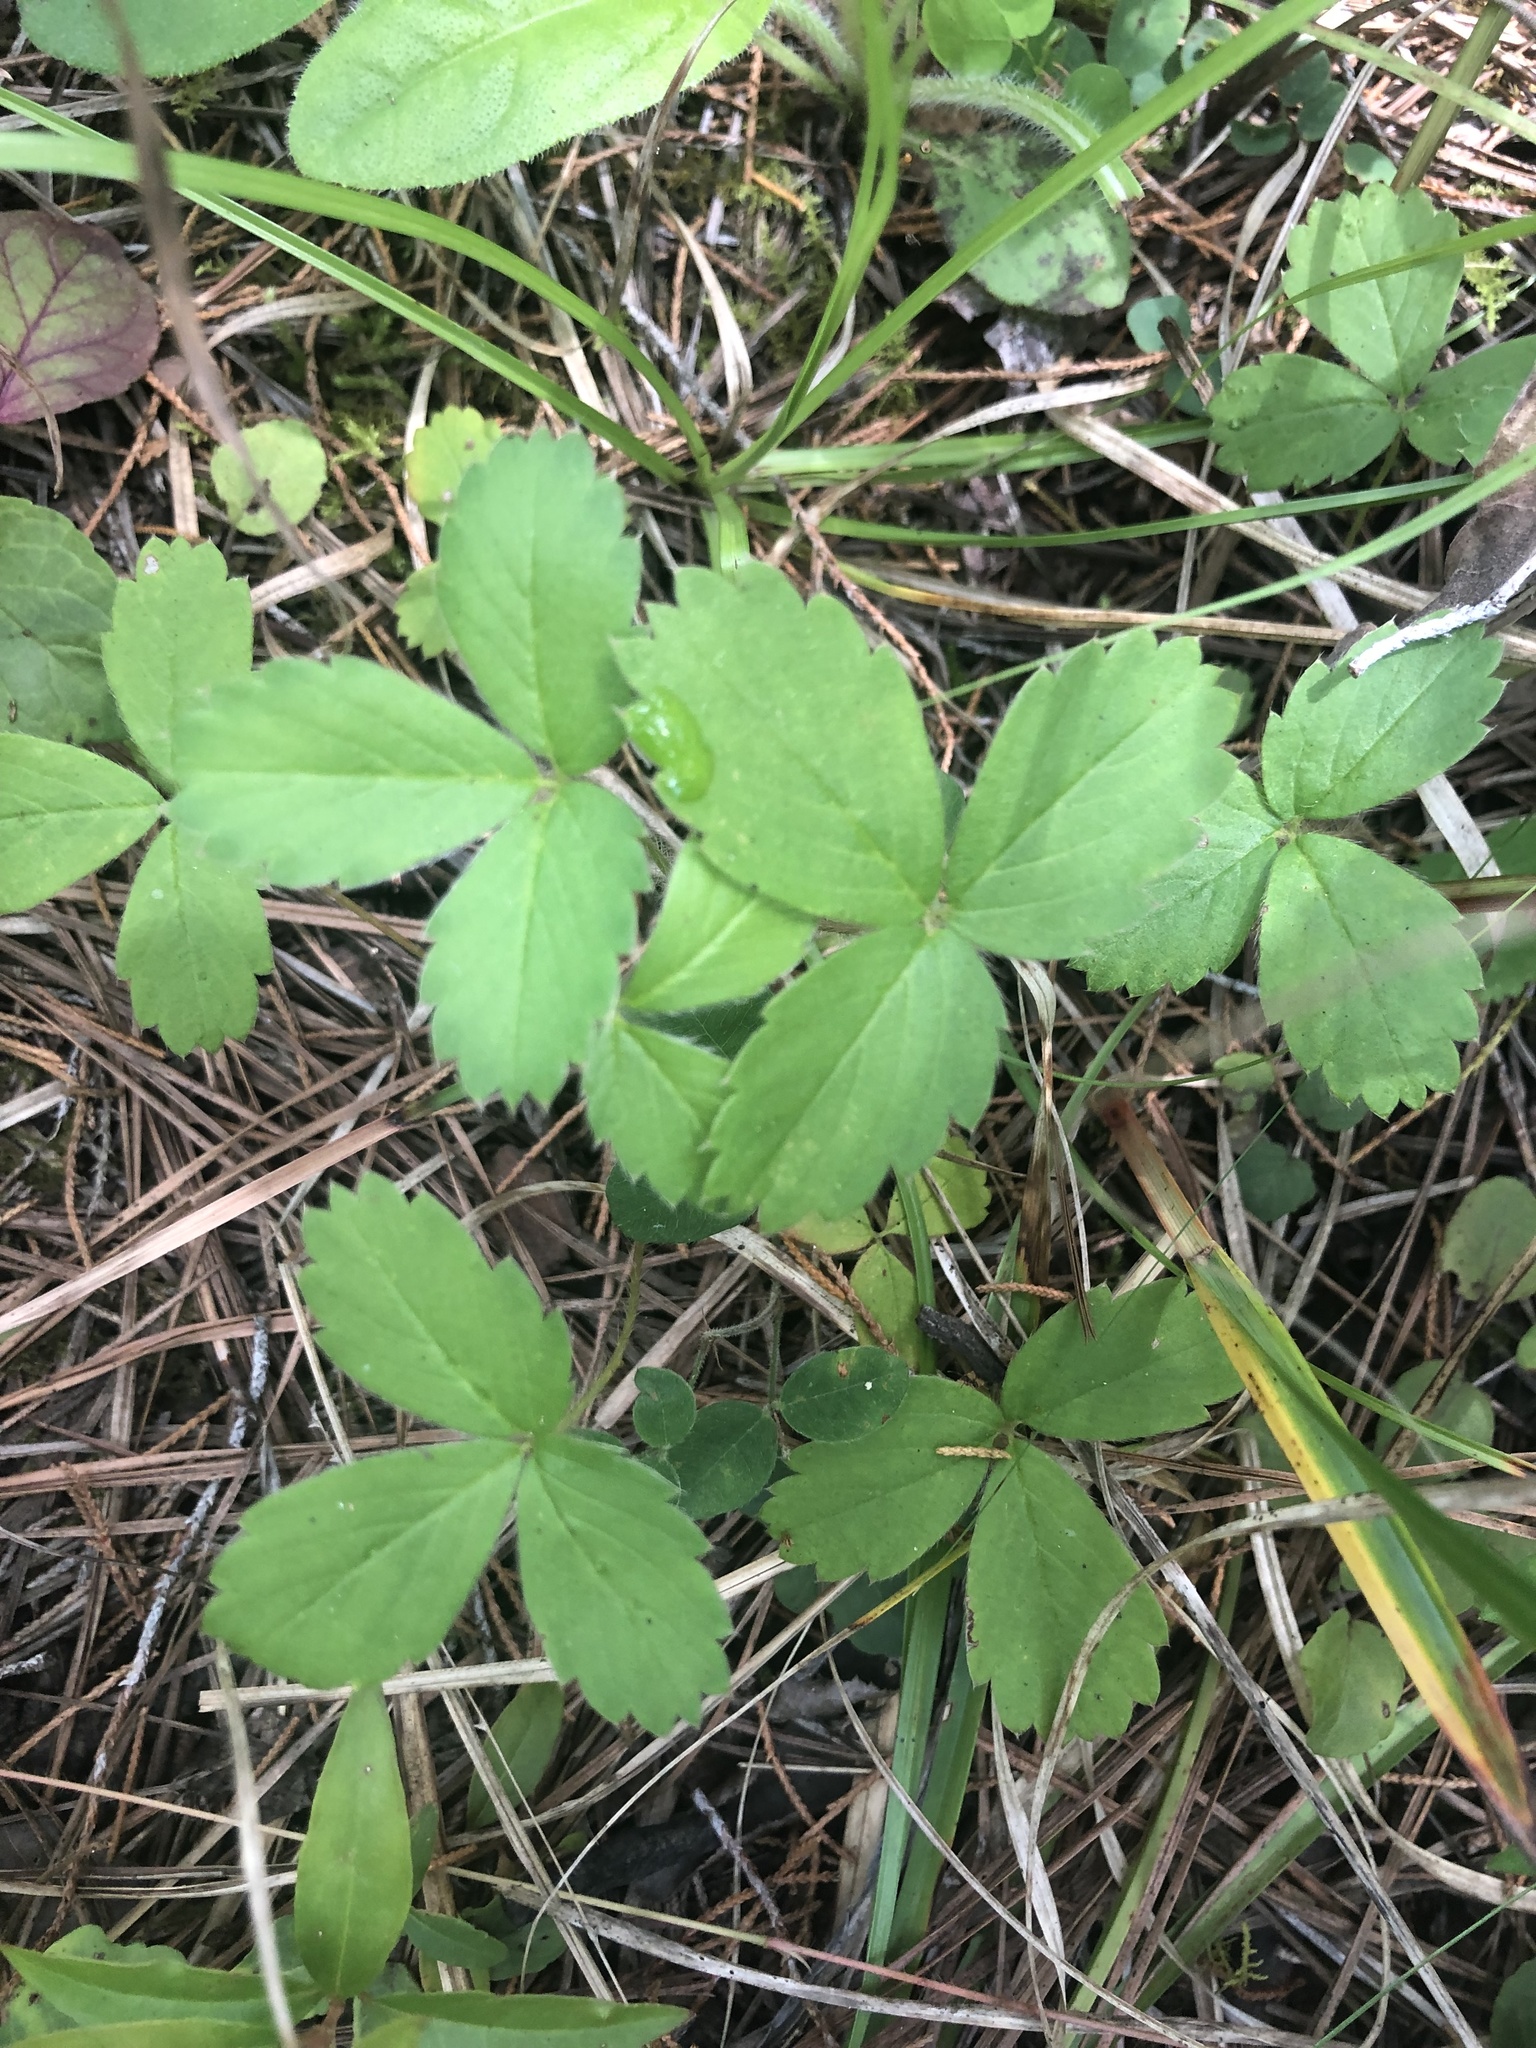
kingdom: Plantae
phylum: Tracheophyta
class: Magnoliopsida
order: Rosales
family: Rosaceae
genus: Fragaria
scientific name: Fragaria virginiana
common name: Thickleaved wild strawberry
